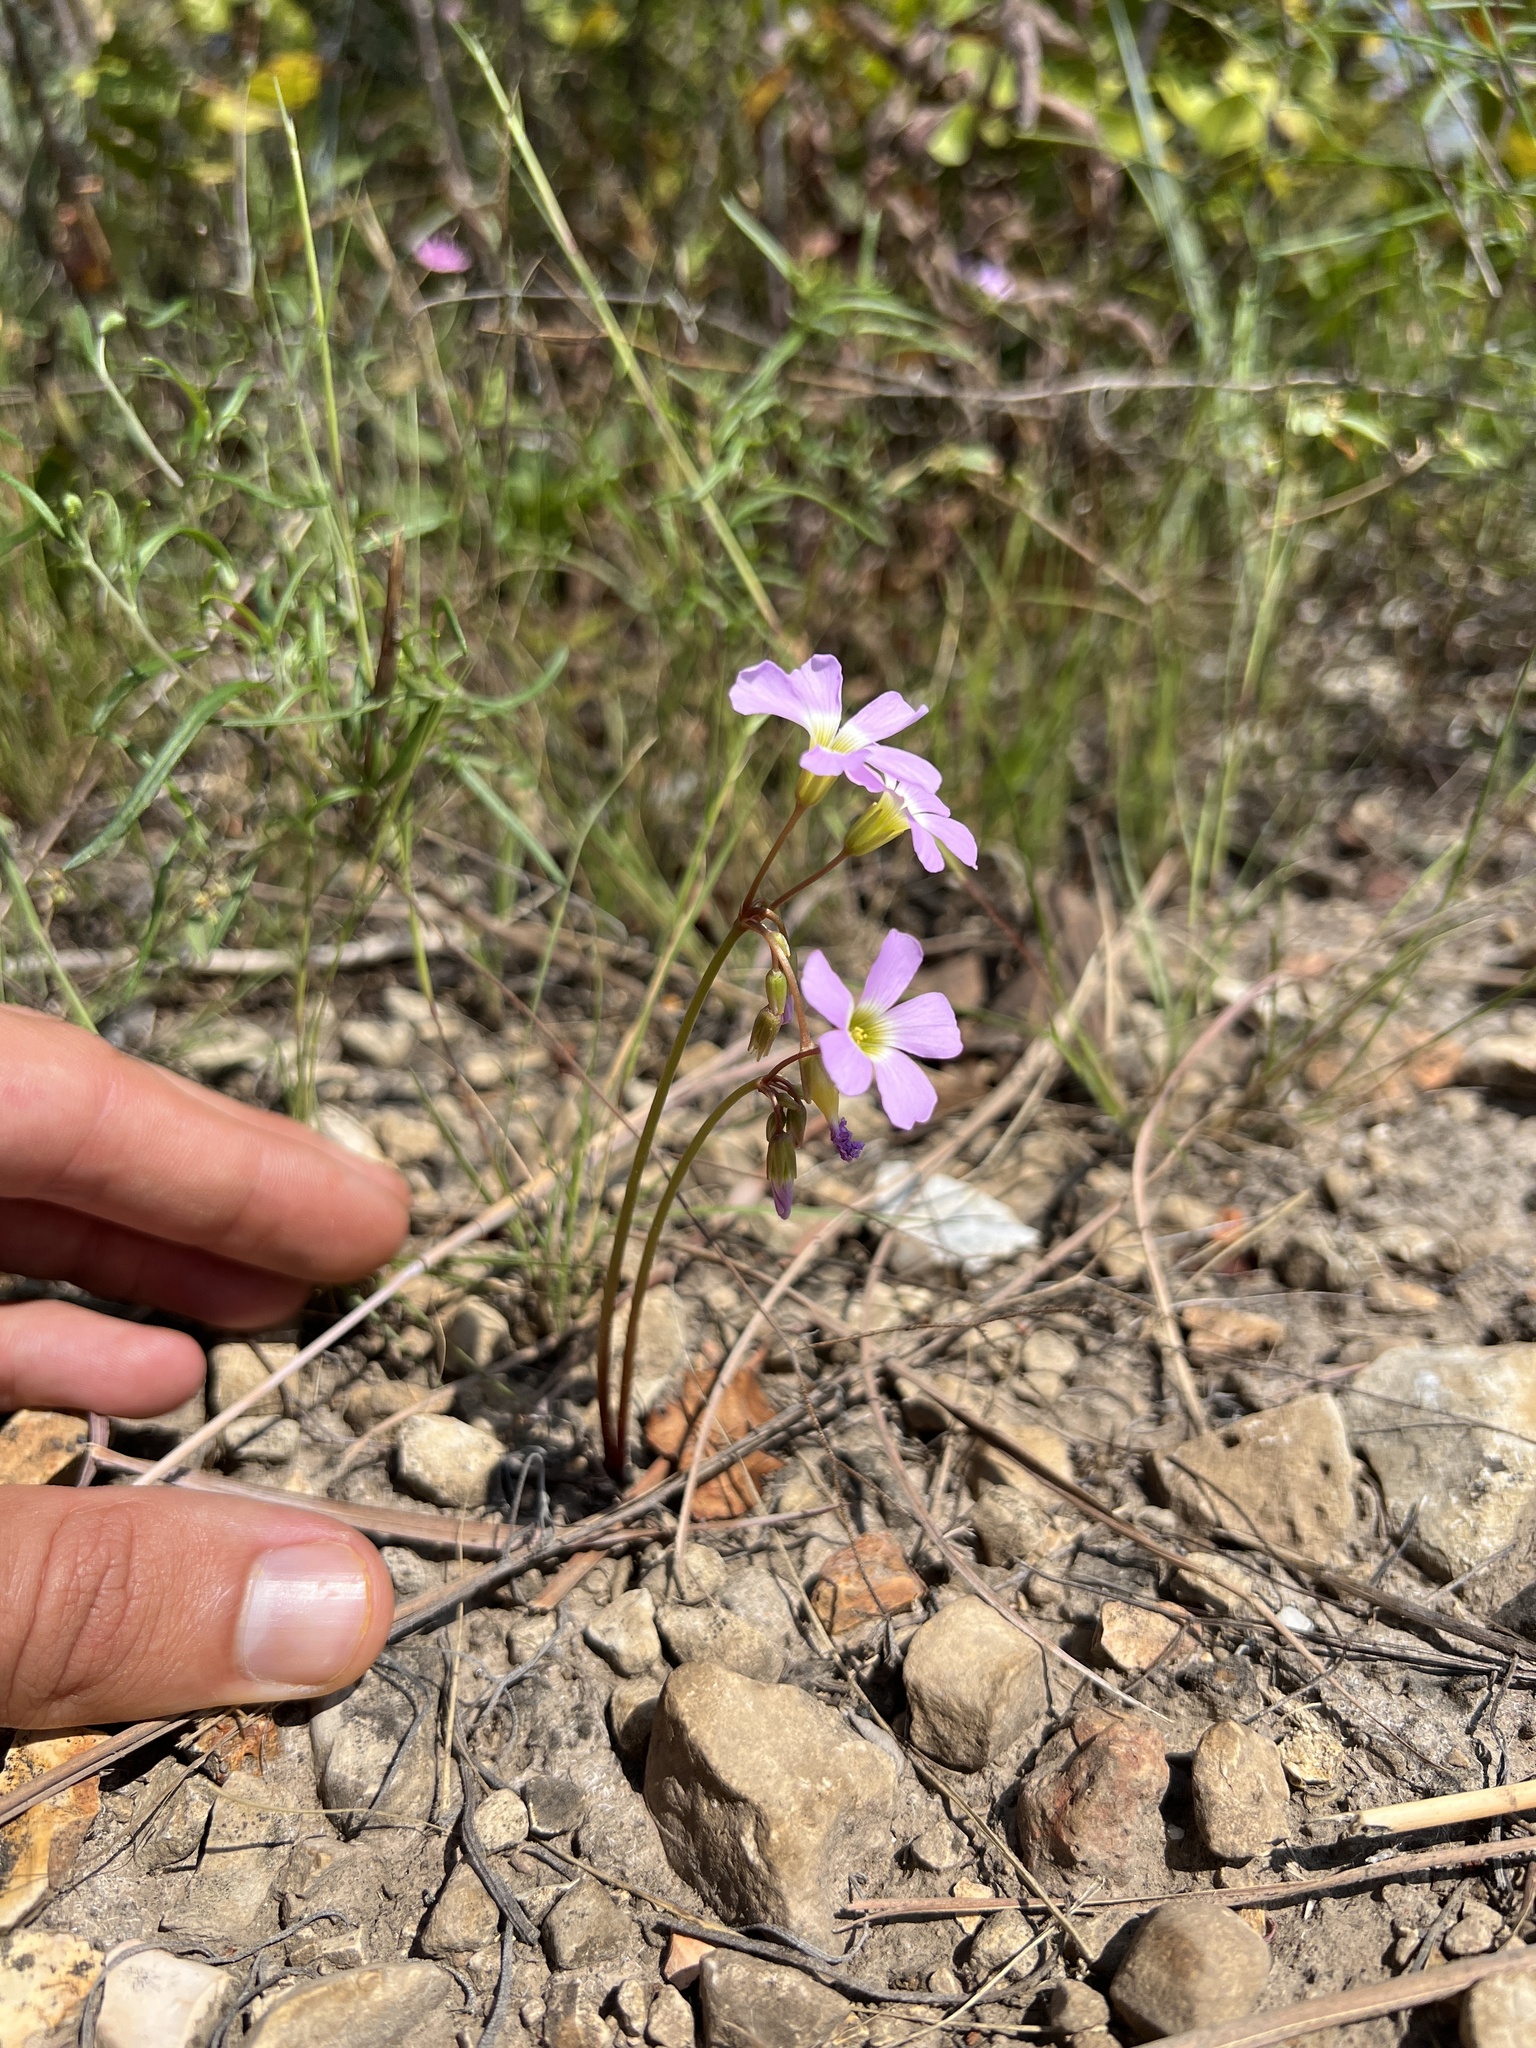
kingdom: Plantae
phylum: Tracheophyta
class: Magnoliopsida
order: Oxalidales
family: Oxalidaceae
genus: Oxalis
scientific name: Oxalis violacea
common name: Violet wood-sorrel
